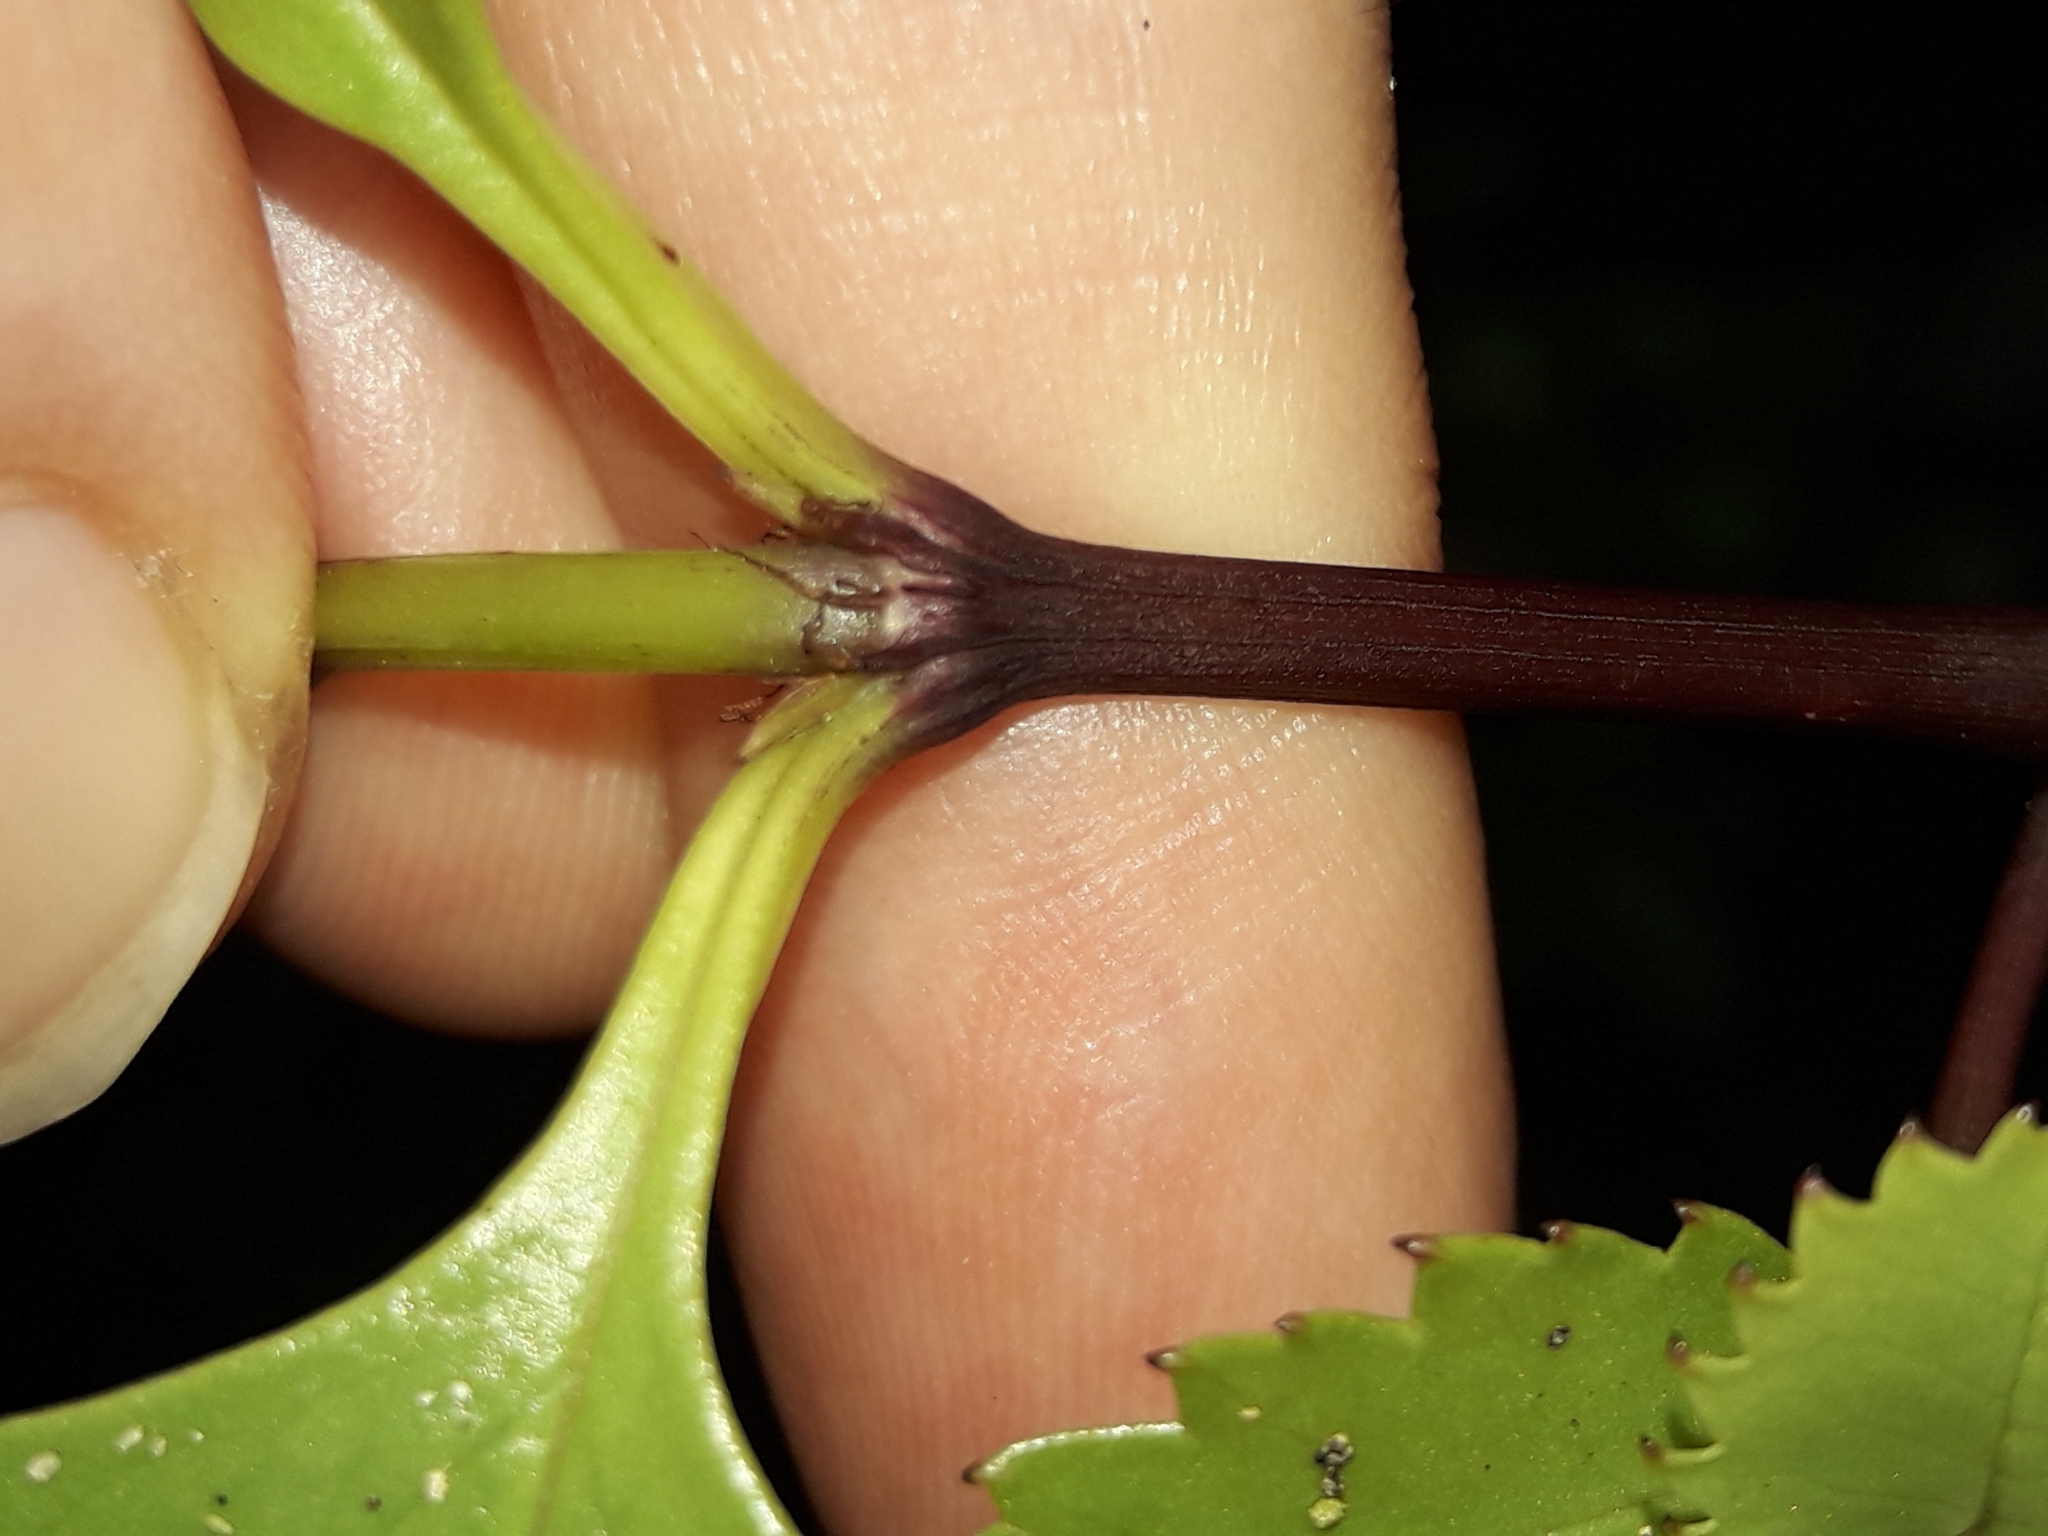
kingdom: Plantae
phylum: Tracheophyta
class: Magnoliopsida
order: Chloranthales
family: Chloranthaceae
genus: Ascarina
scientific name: Ascarina lucida
